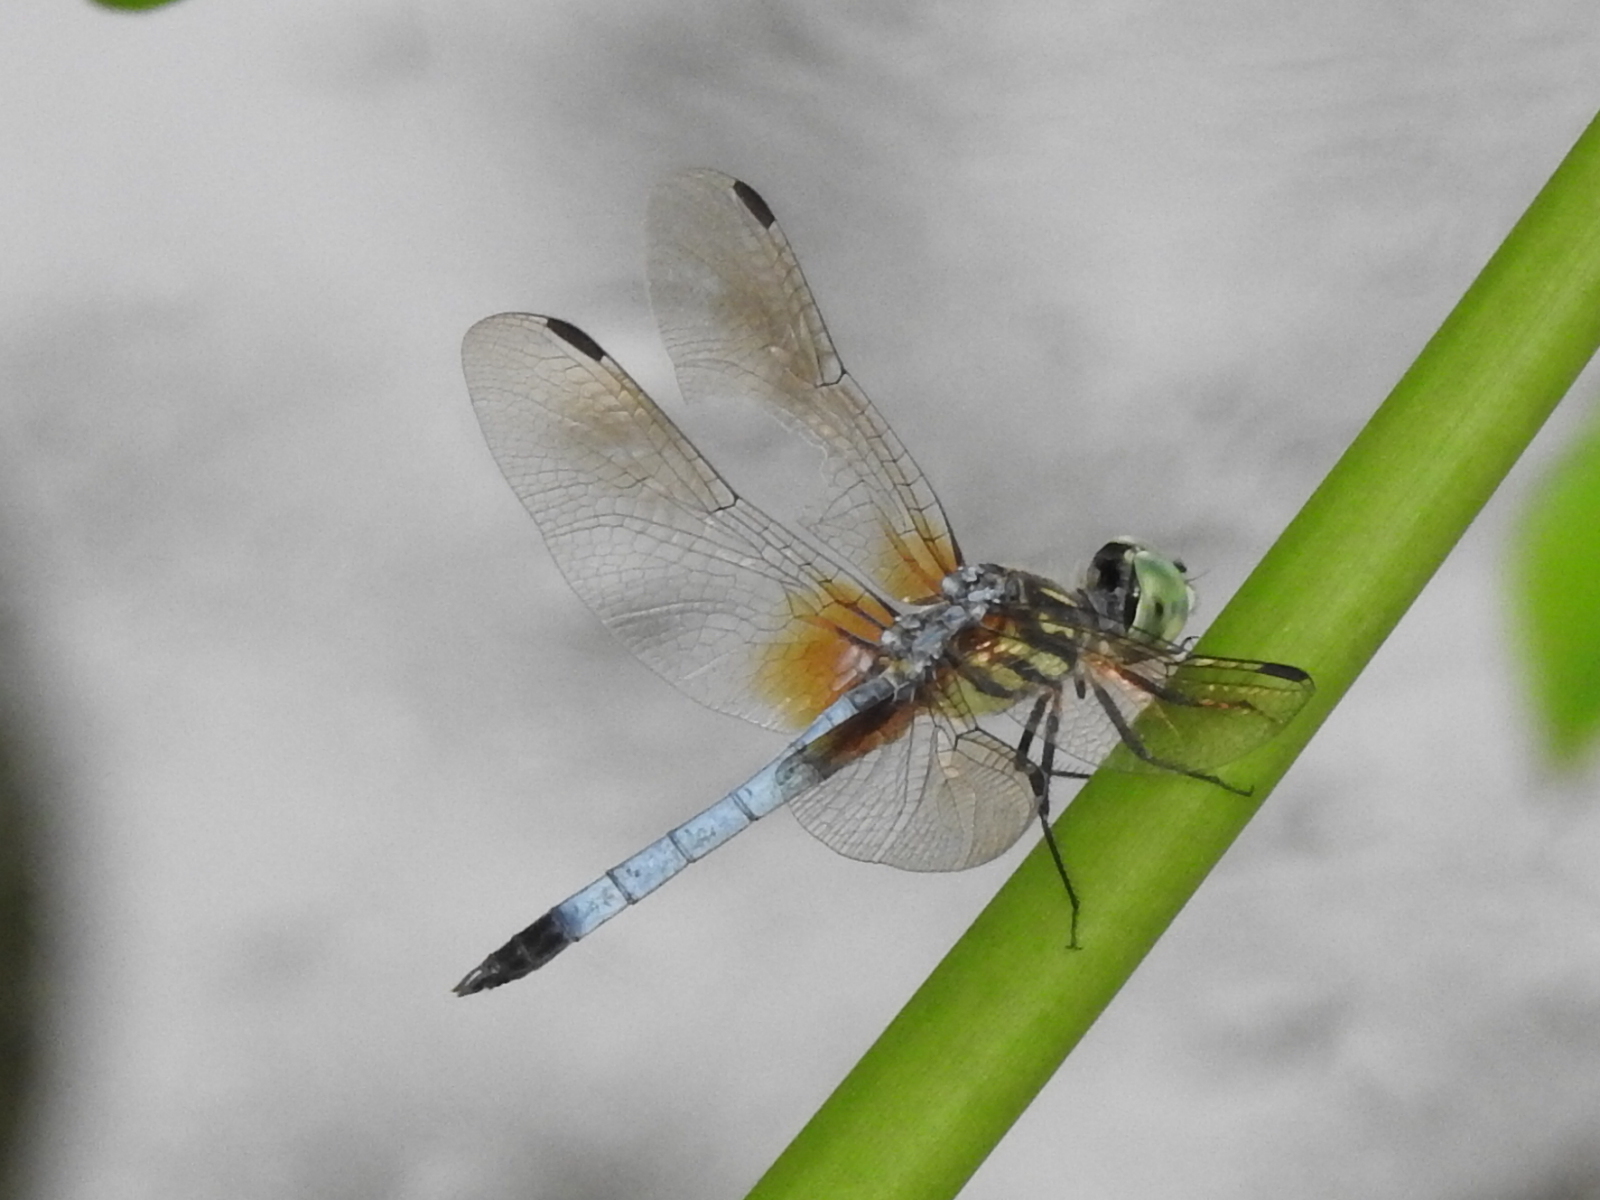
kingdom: Animalia
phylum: Arthropoda
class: Insecta
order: Odonata
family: Libellulidae
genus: Pachydiplax
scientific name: Pachydiplax longipennis
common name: Blue dasher
